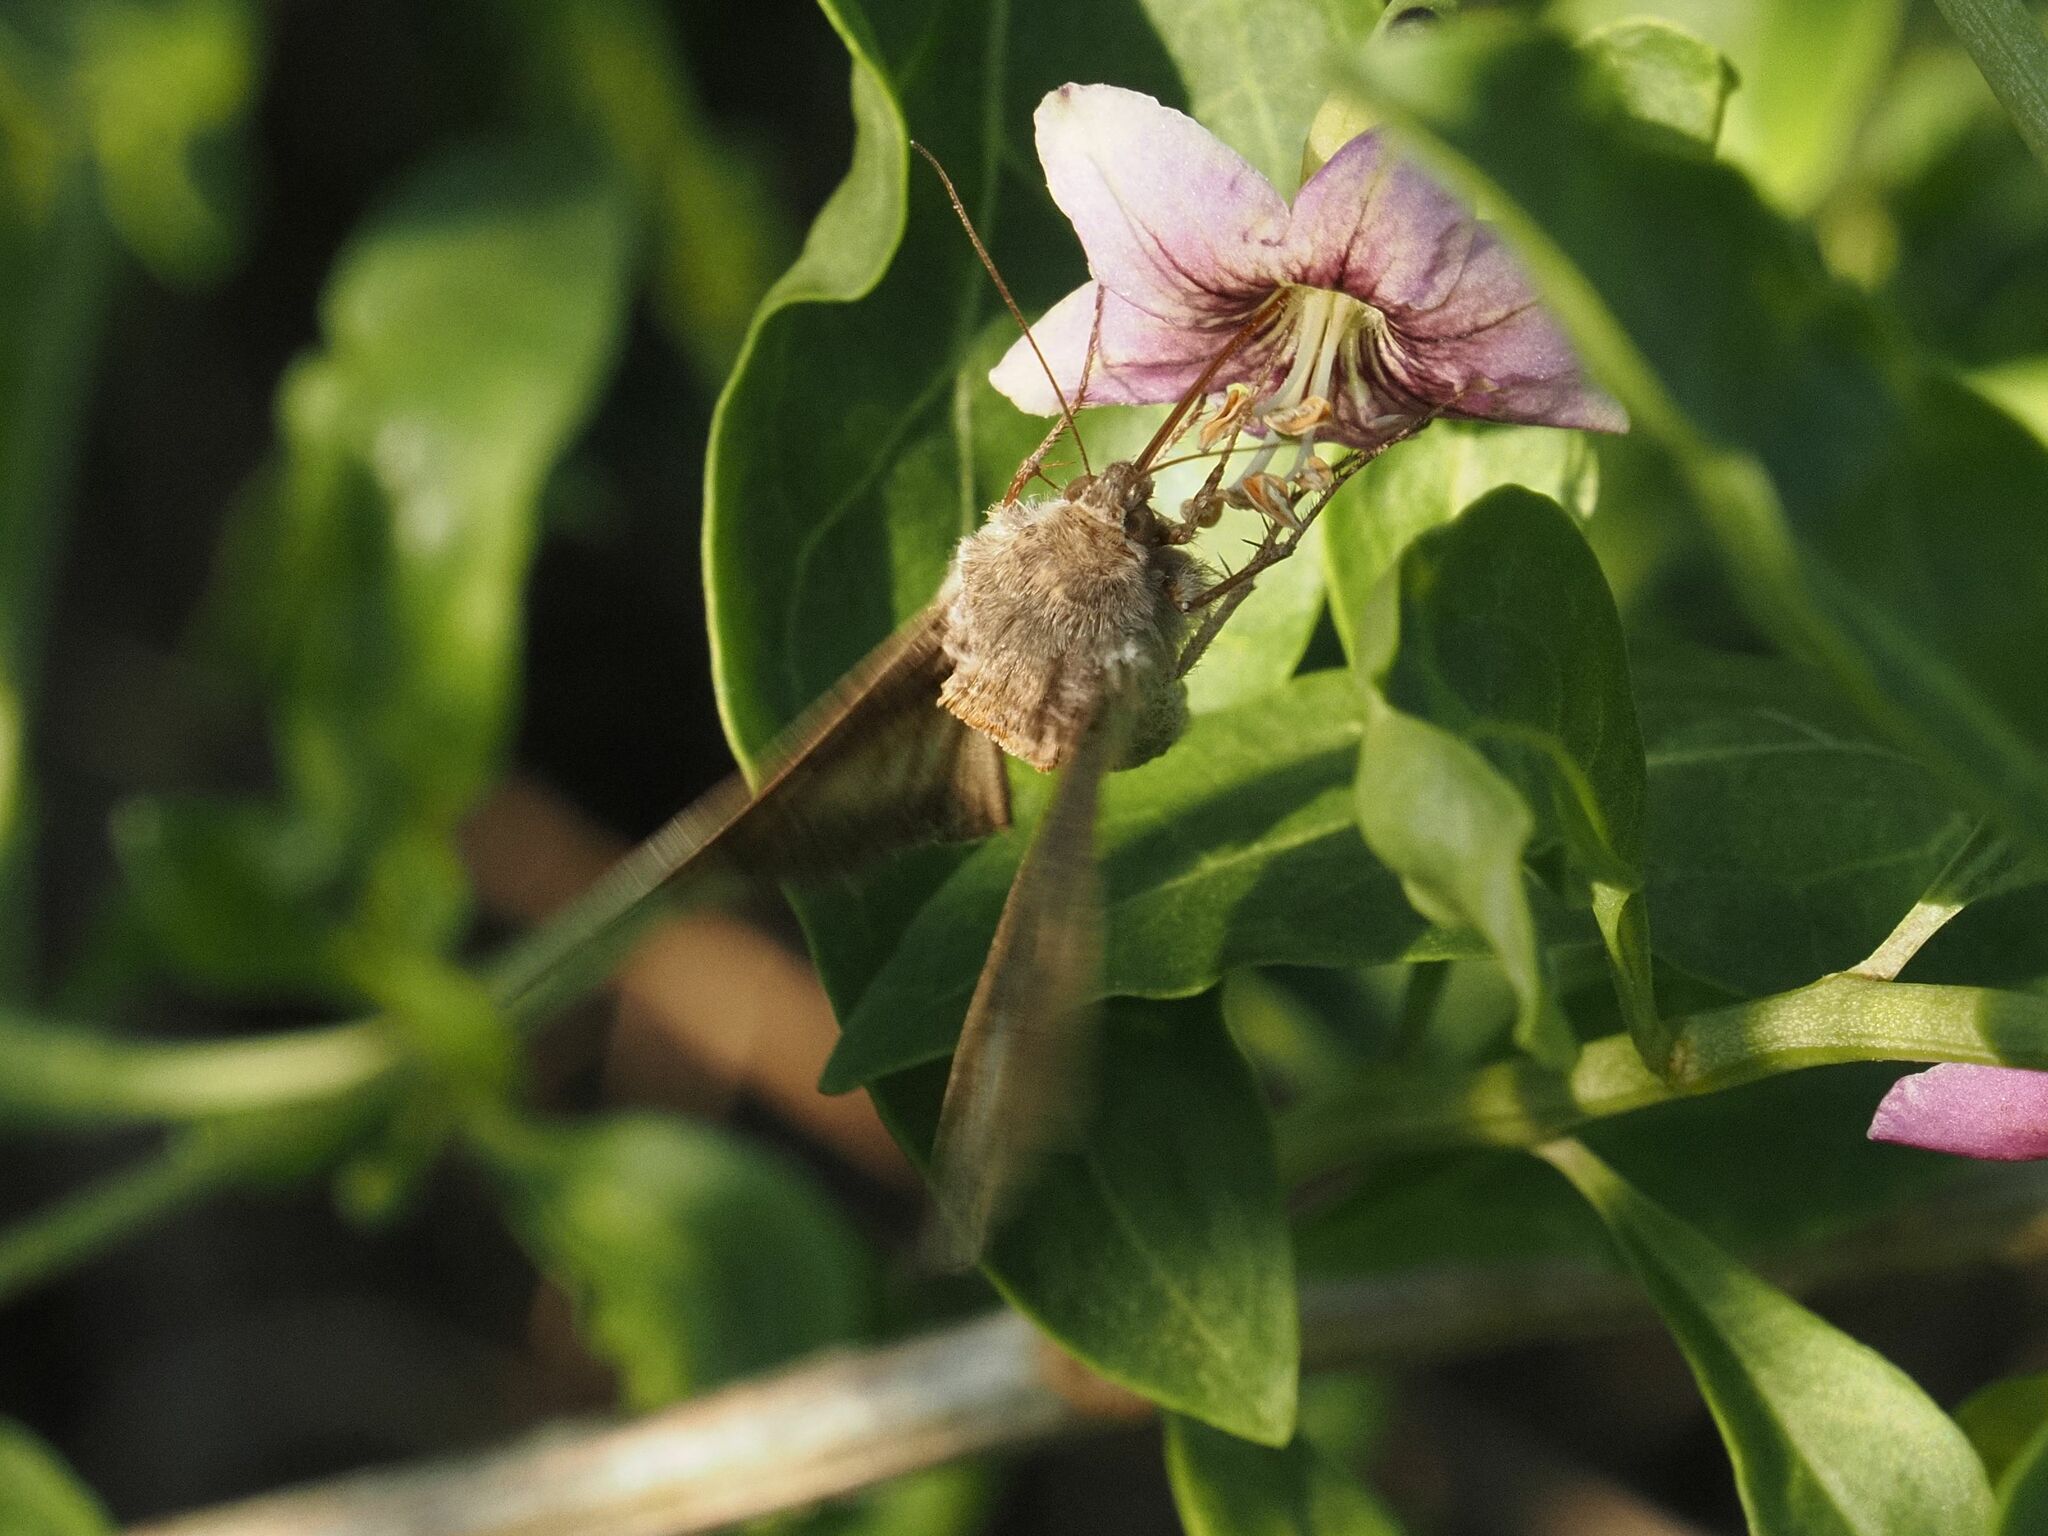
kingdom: Animalia
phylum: Arthropoda
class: Insecta
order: Lepidoptera
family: Noctuidae
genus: Autographa
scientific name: Autographa gamma
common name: Silver y
